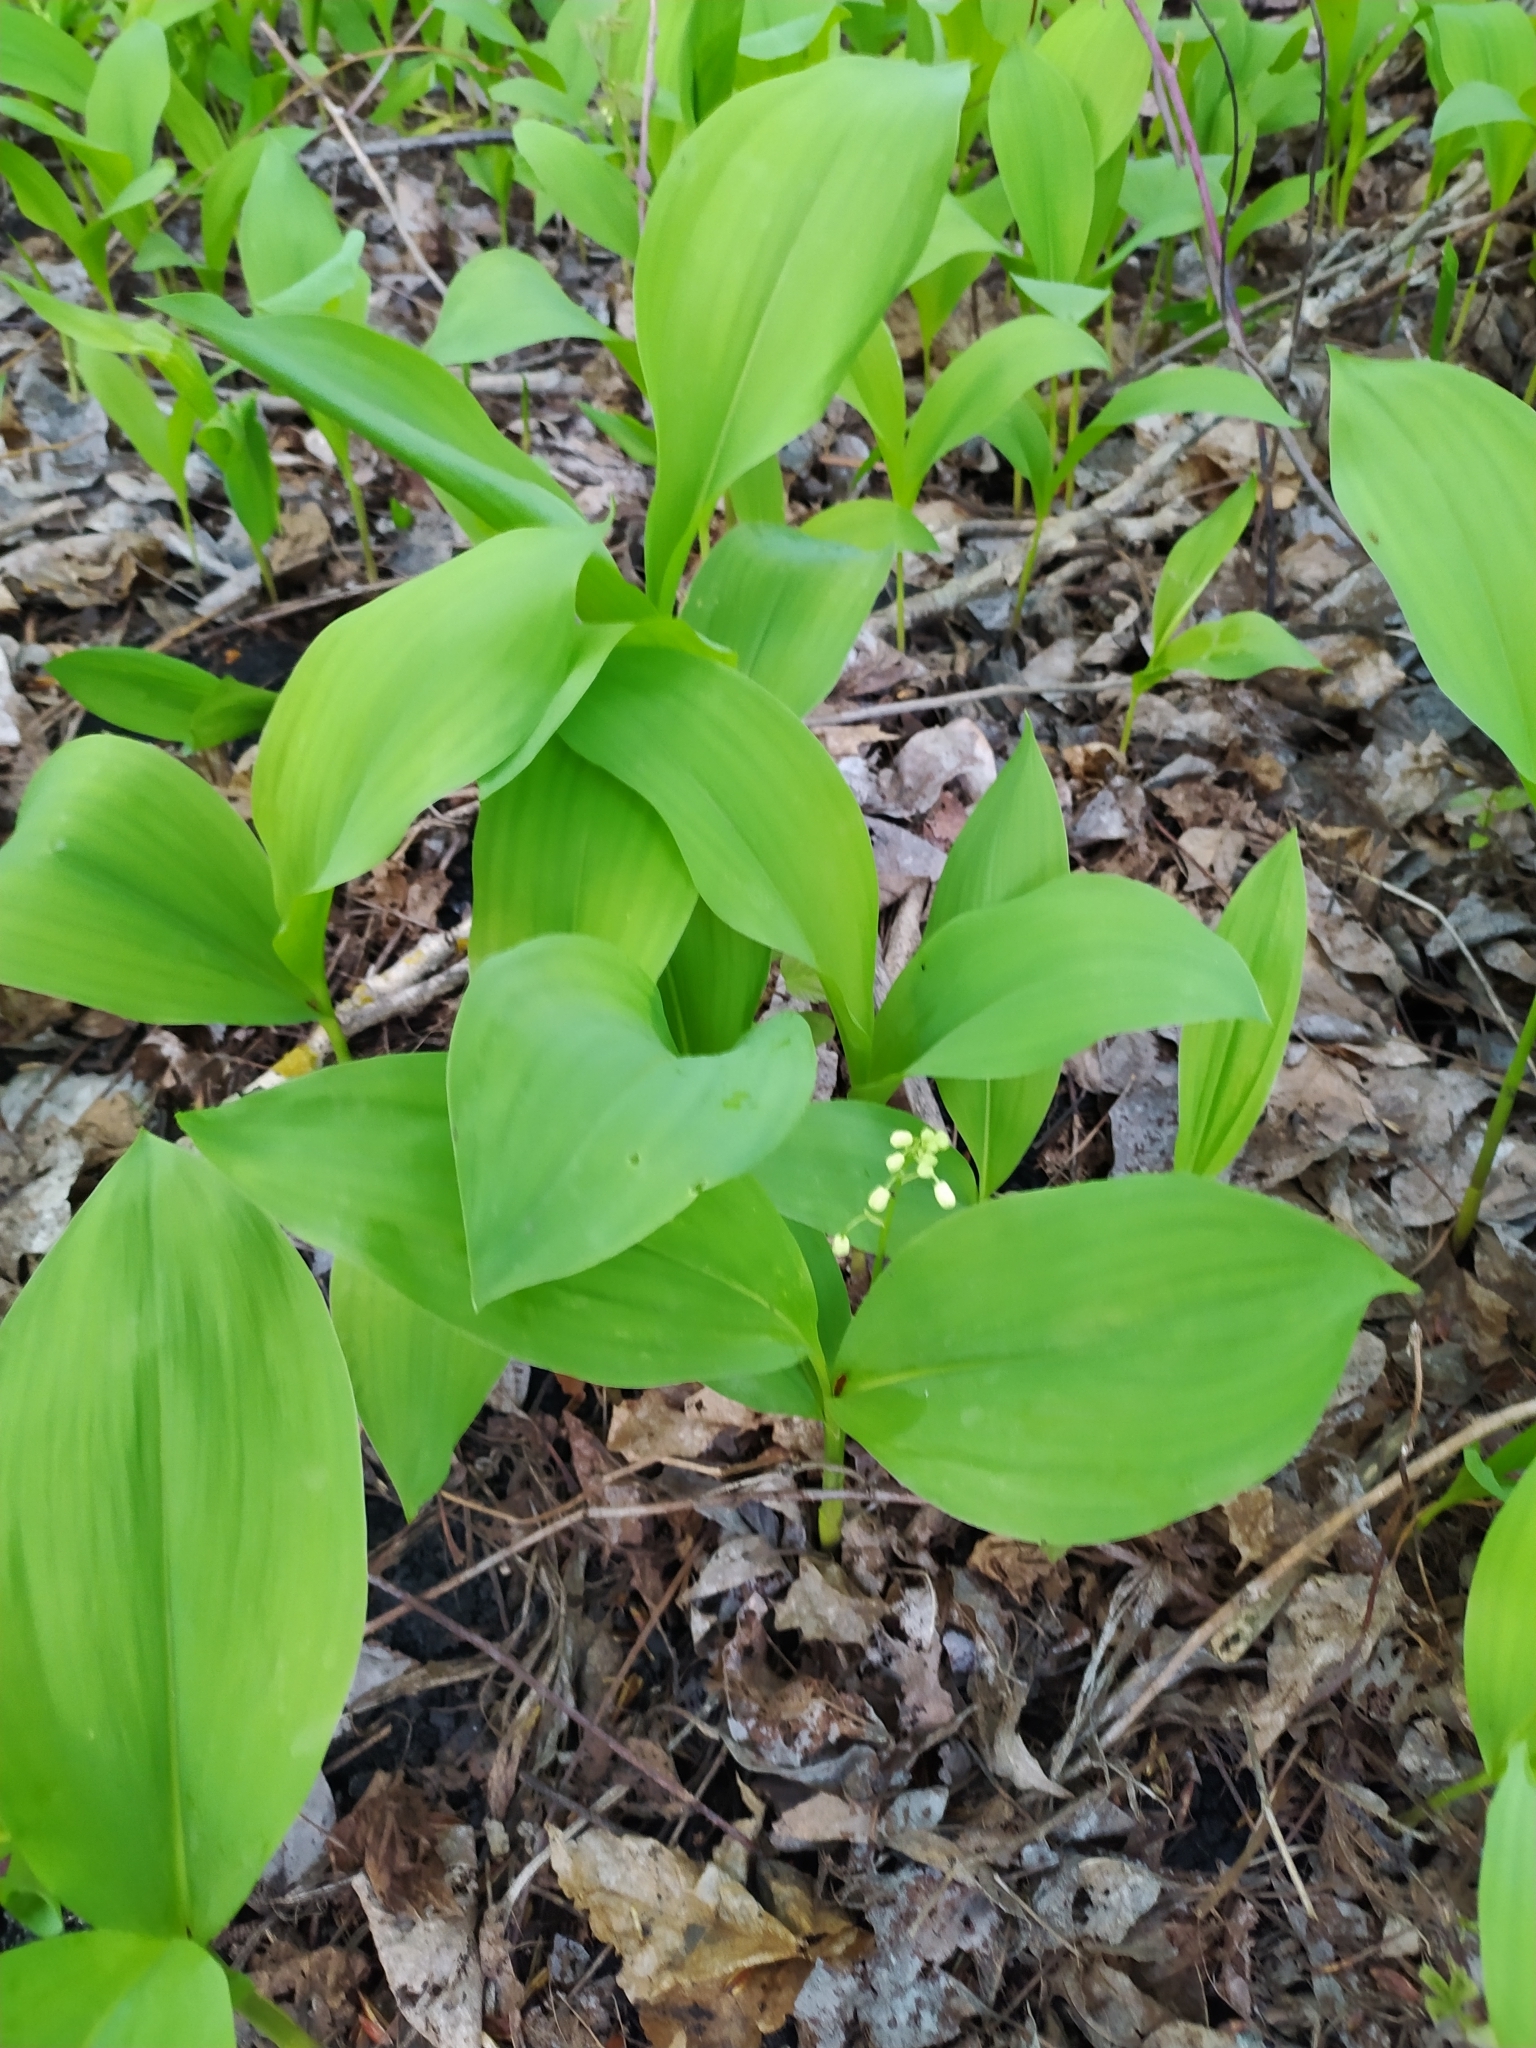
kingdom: Plantae
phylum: Tracheophyta
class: Liliopsida
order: Asparagales
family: Asparagaceae
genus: Convallaria
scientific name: Convallaria majalis
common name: Lily-of-the-valley
